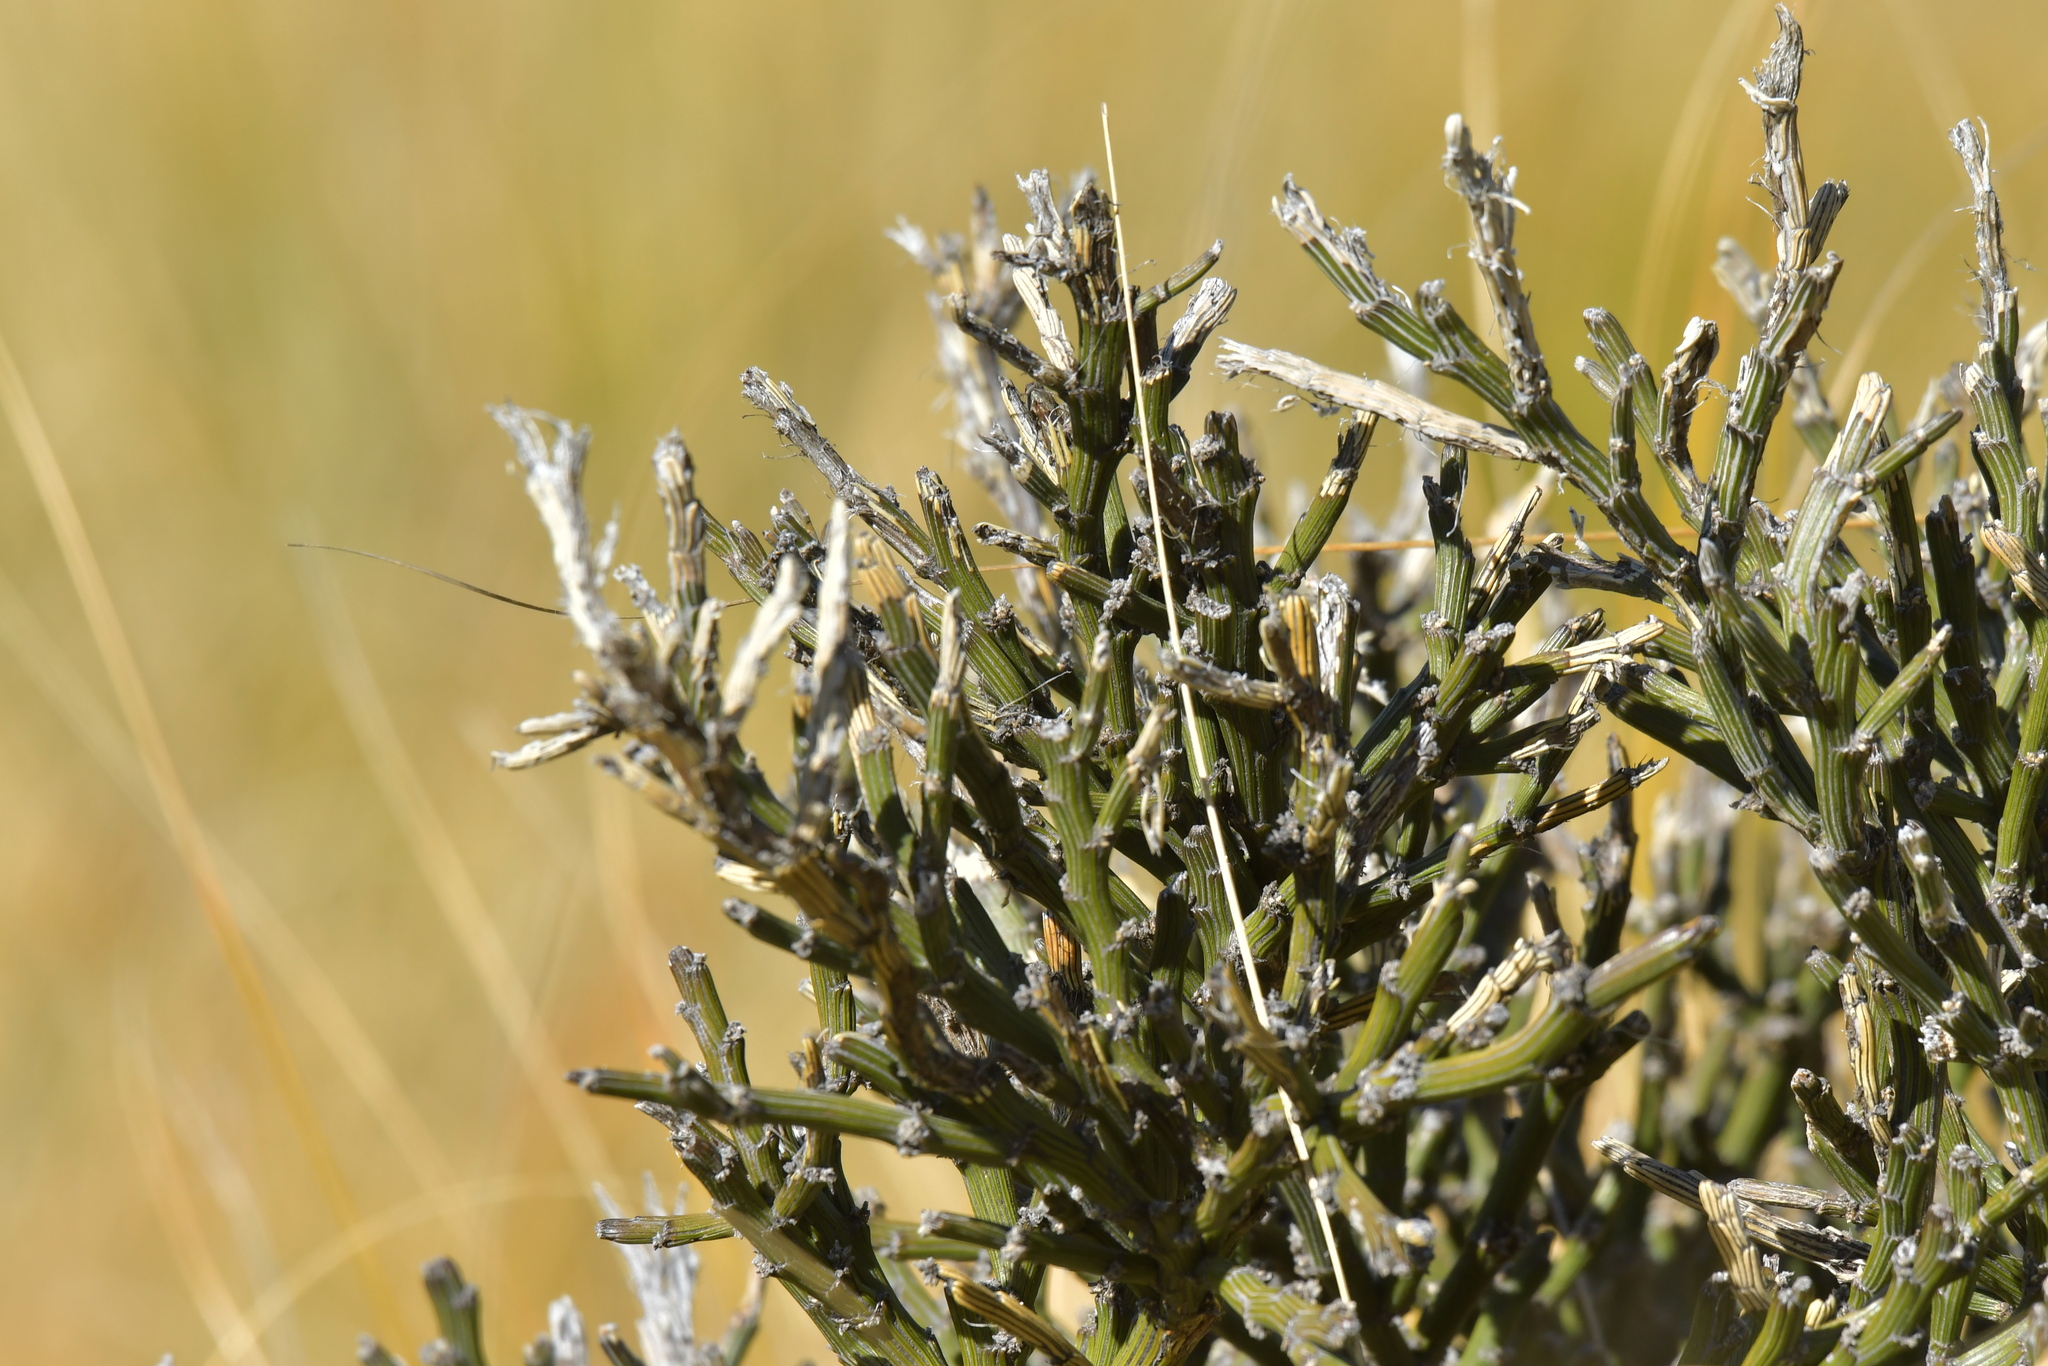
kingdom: Plantae
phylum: Tracheophyta
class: Magnoliopsida
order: Fabales
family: Fabaceae
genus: Carmichaelia
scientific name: Carmichaelia crassicaulis
